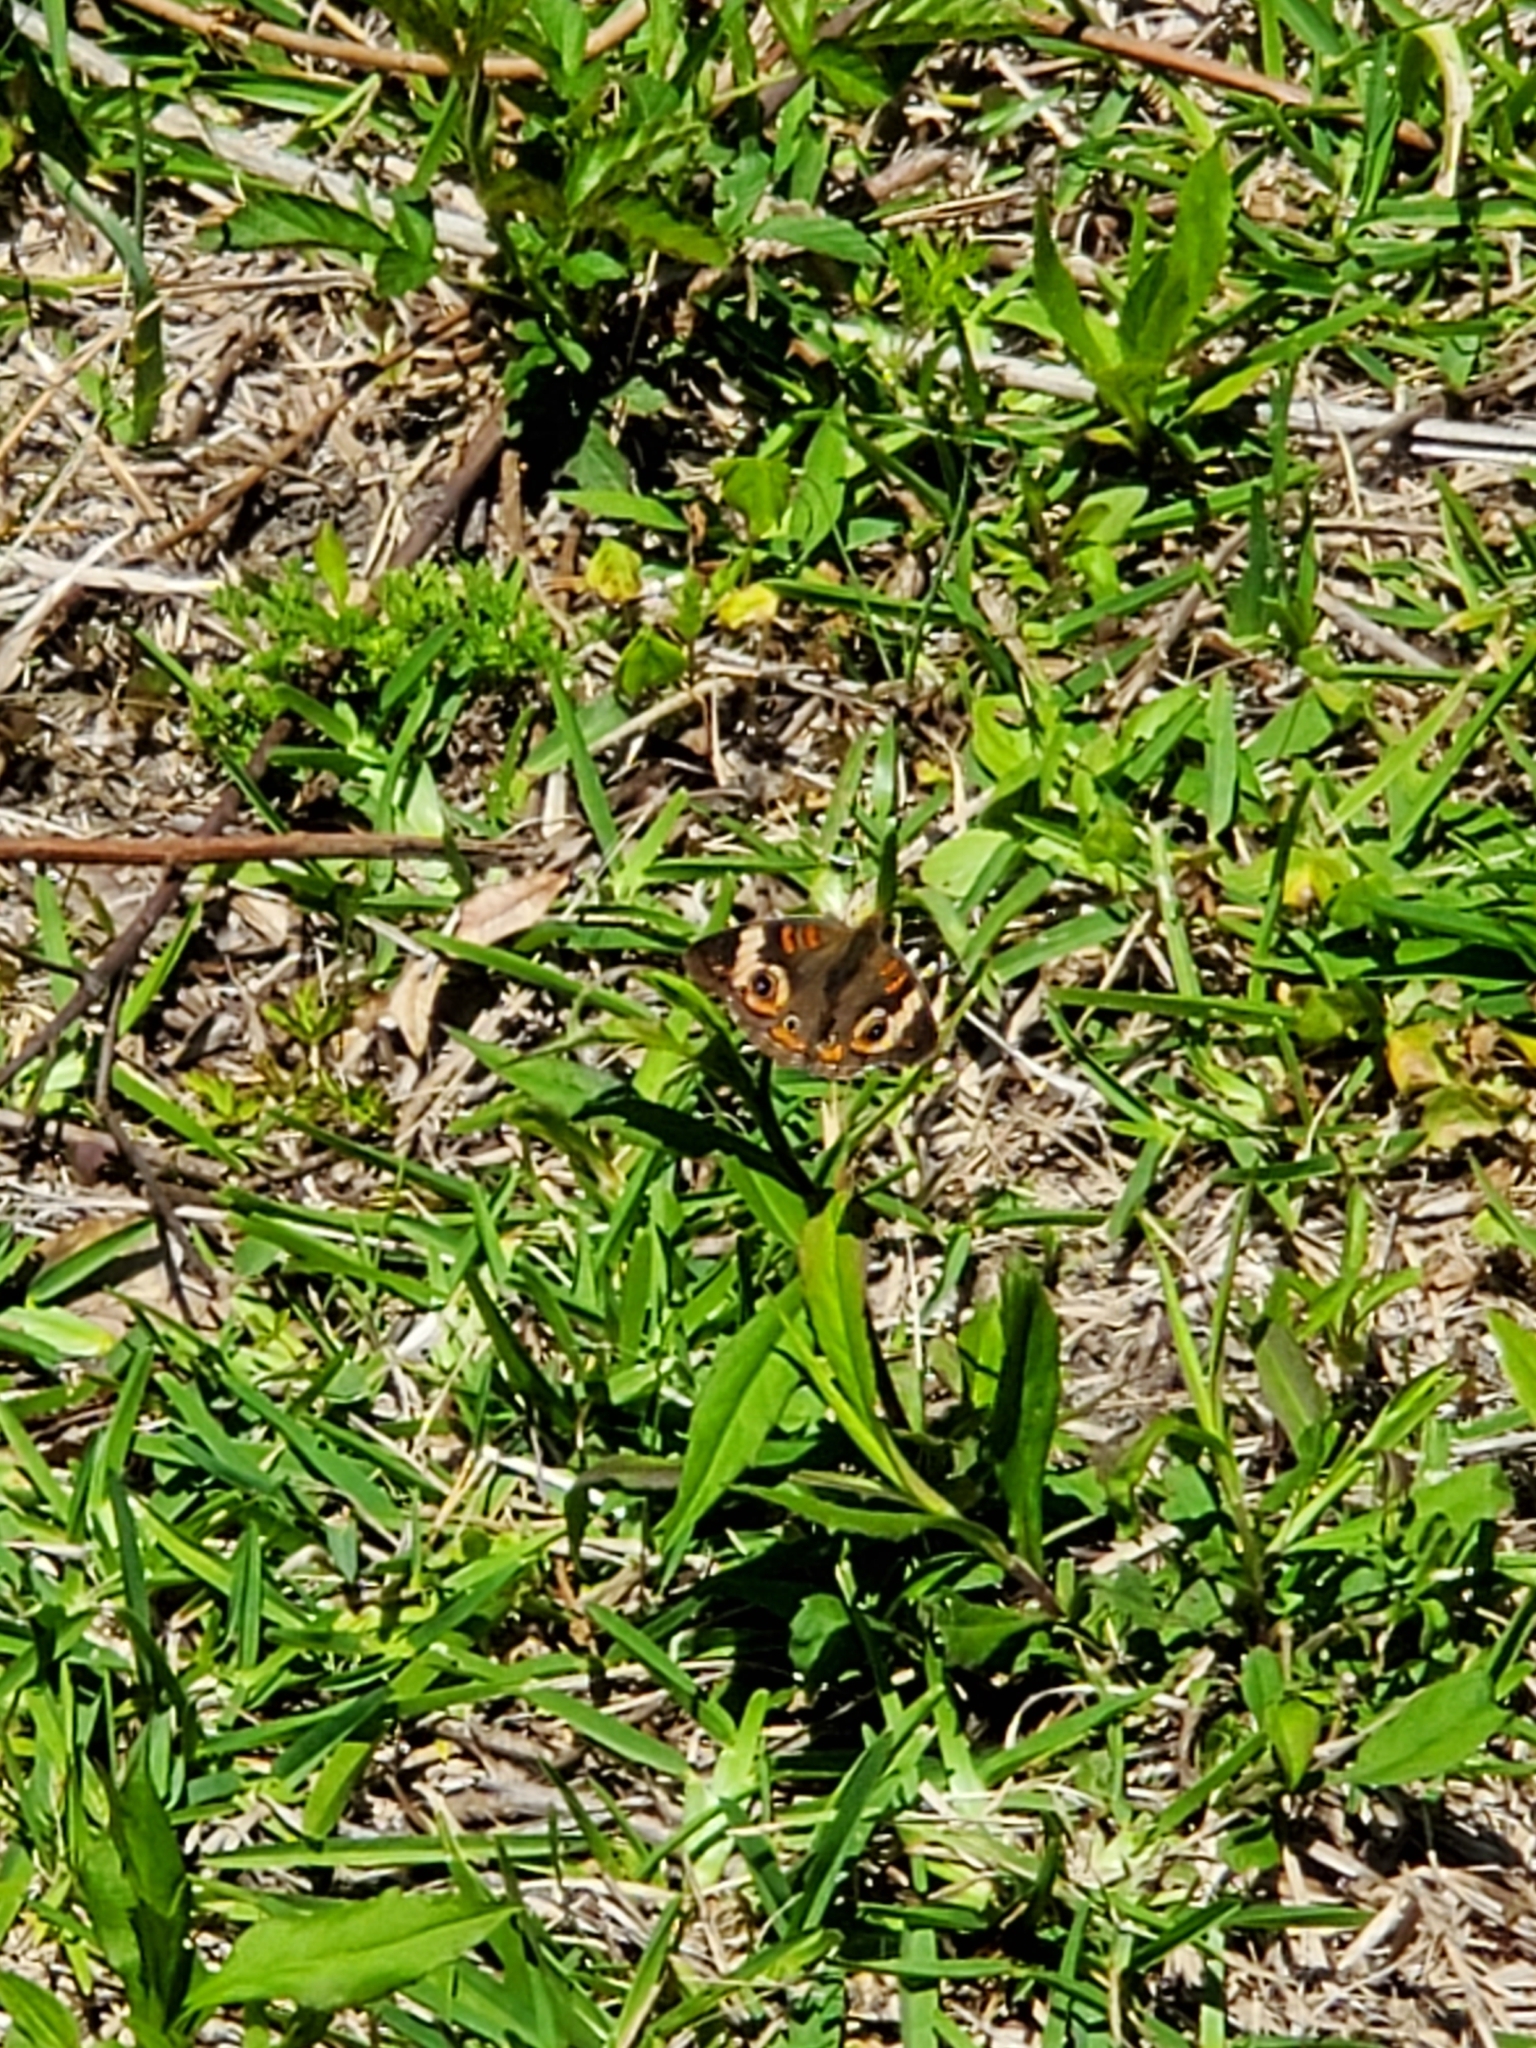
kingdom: Animalia
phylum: Arthropoda
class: Insecta
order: Lepidoptera
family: Nymphalidae
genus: Junonia
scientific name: Junonia coenia
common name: Common buckeye
